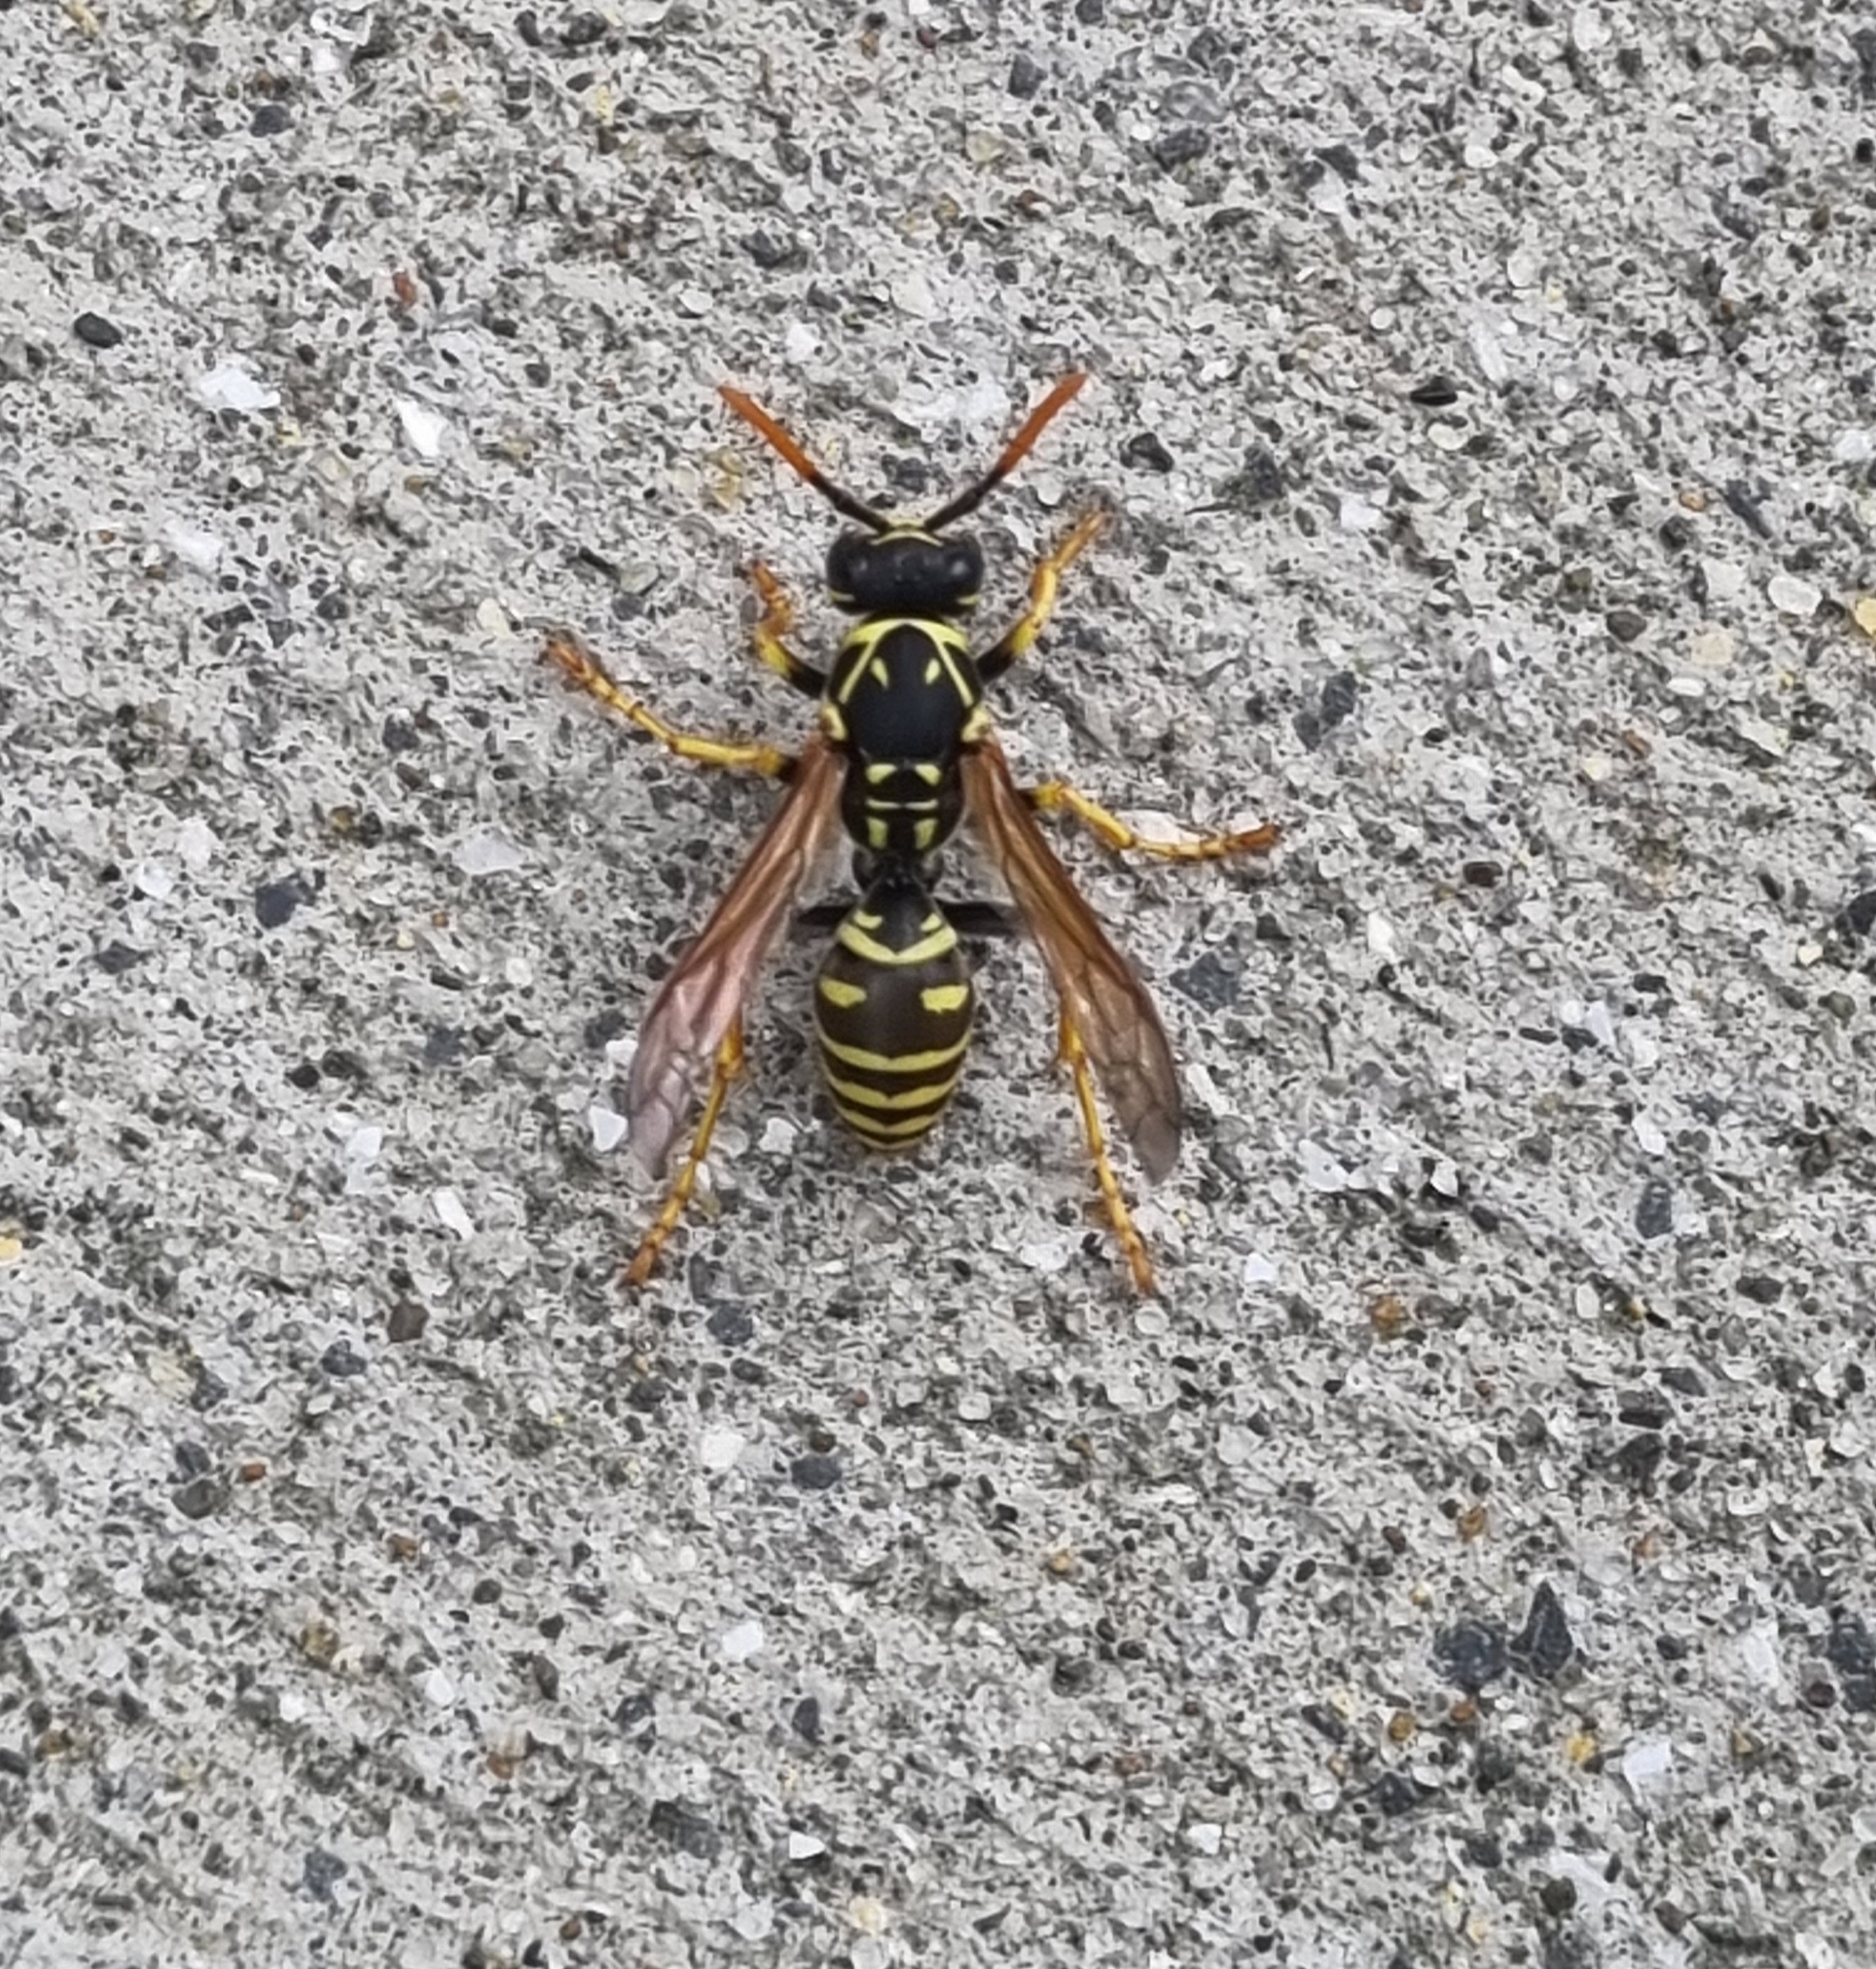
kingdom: Animalia
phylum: Arthropoda
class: Insecta
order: Hymenoptera
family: Eumenidae
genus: Polistes
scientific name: Polistes dominula
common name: Paper wasp
